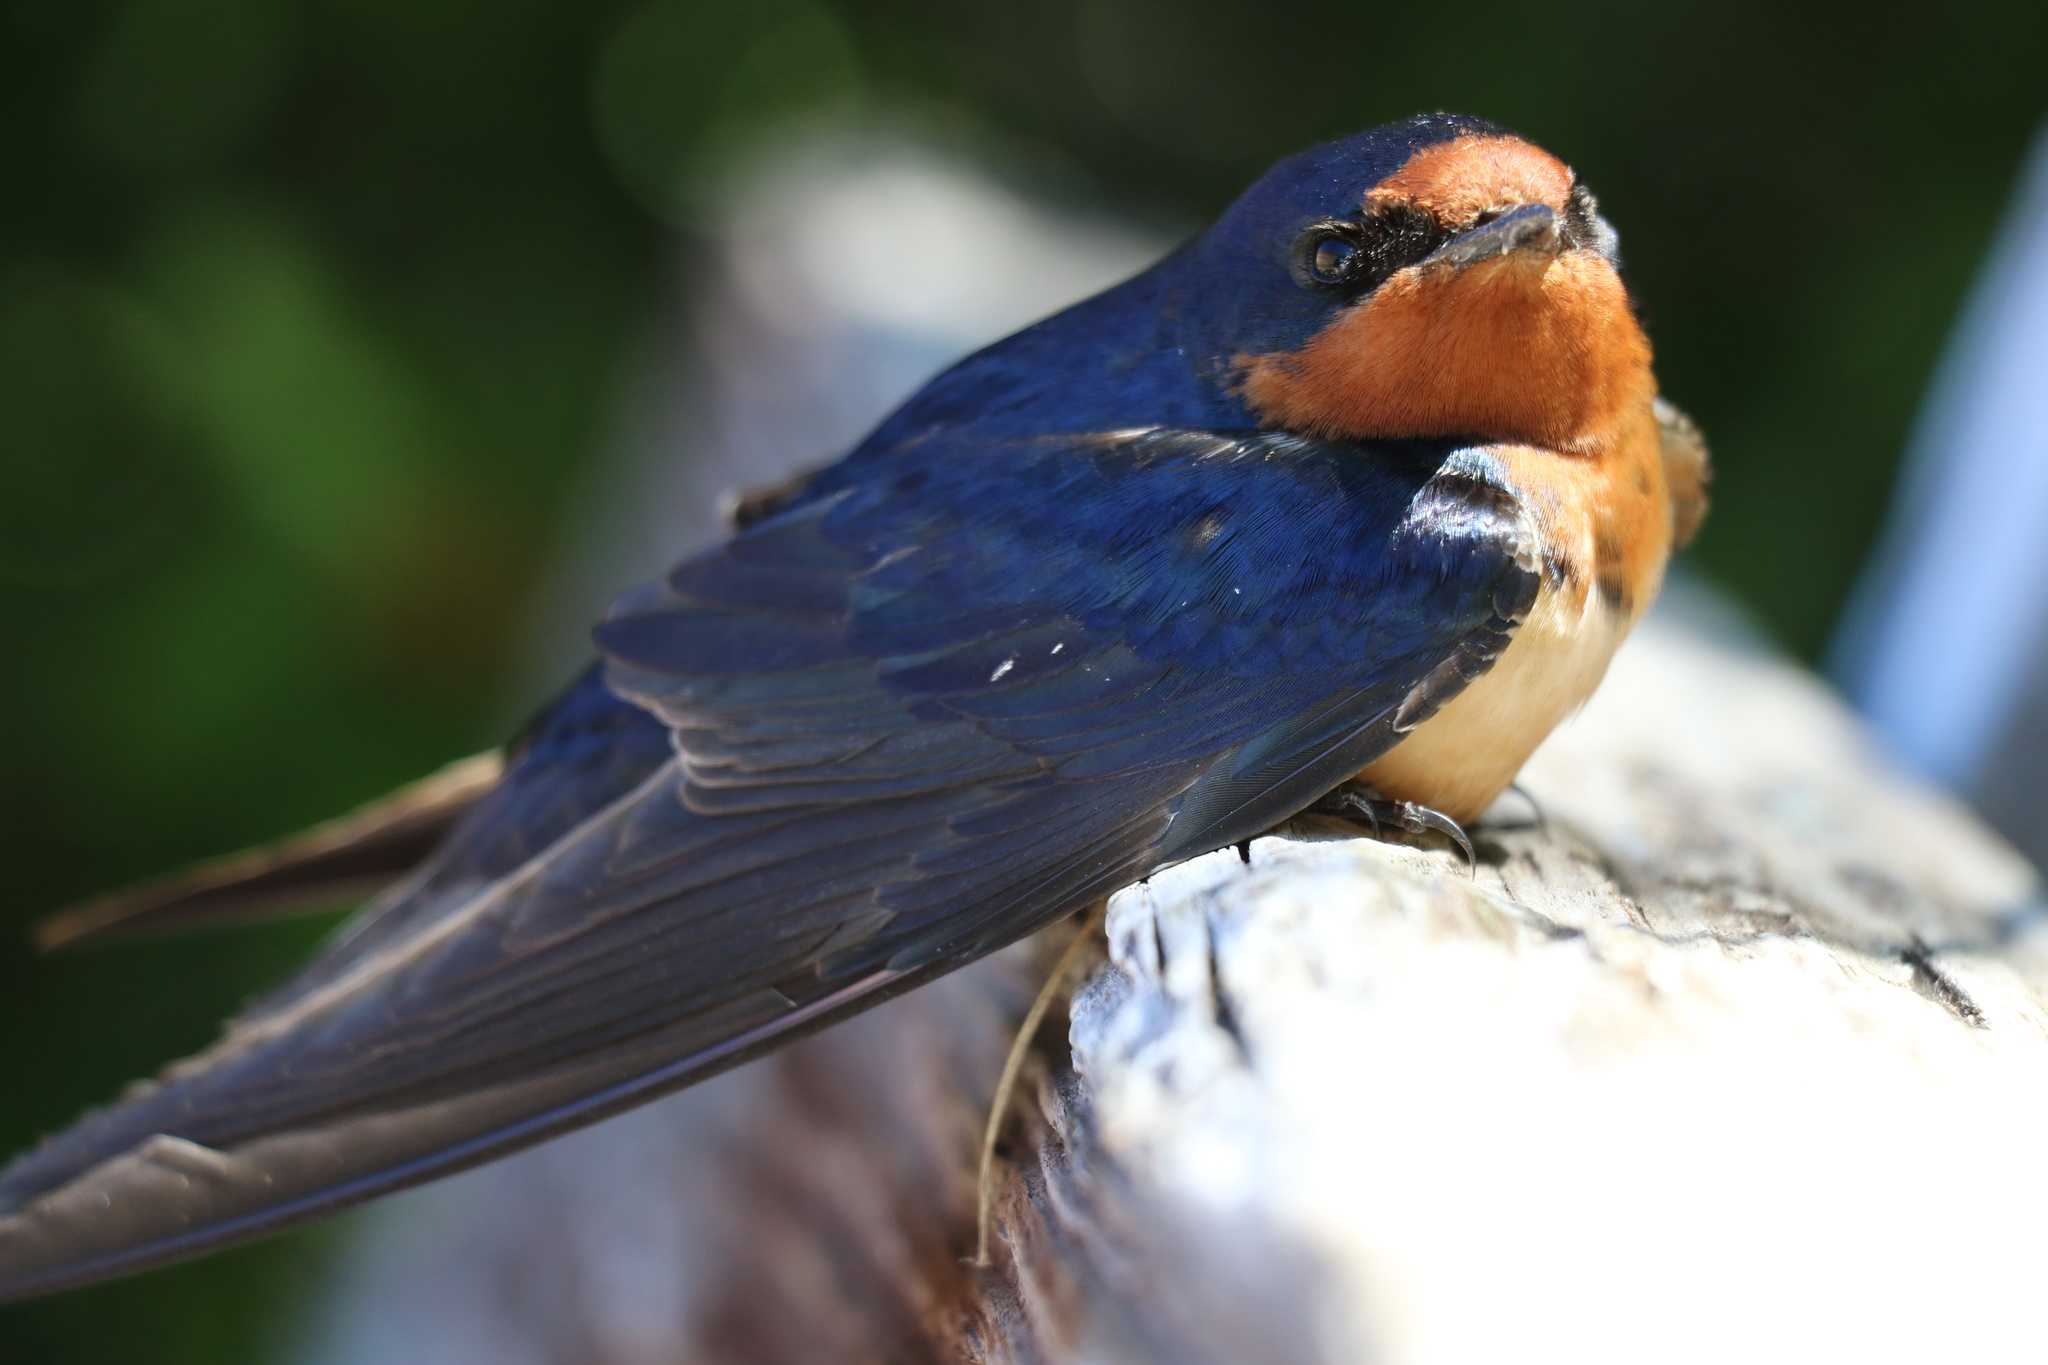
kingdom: Animalia
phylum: Chordata
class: Aves
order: Passeriformes
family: Hirundinidae
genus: Hirundo
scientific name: Hirundo rustica
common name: Barn swallow
